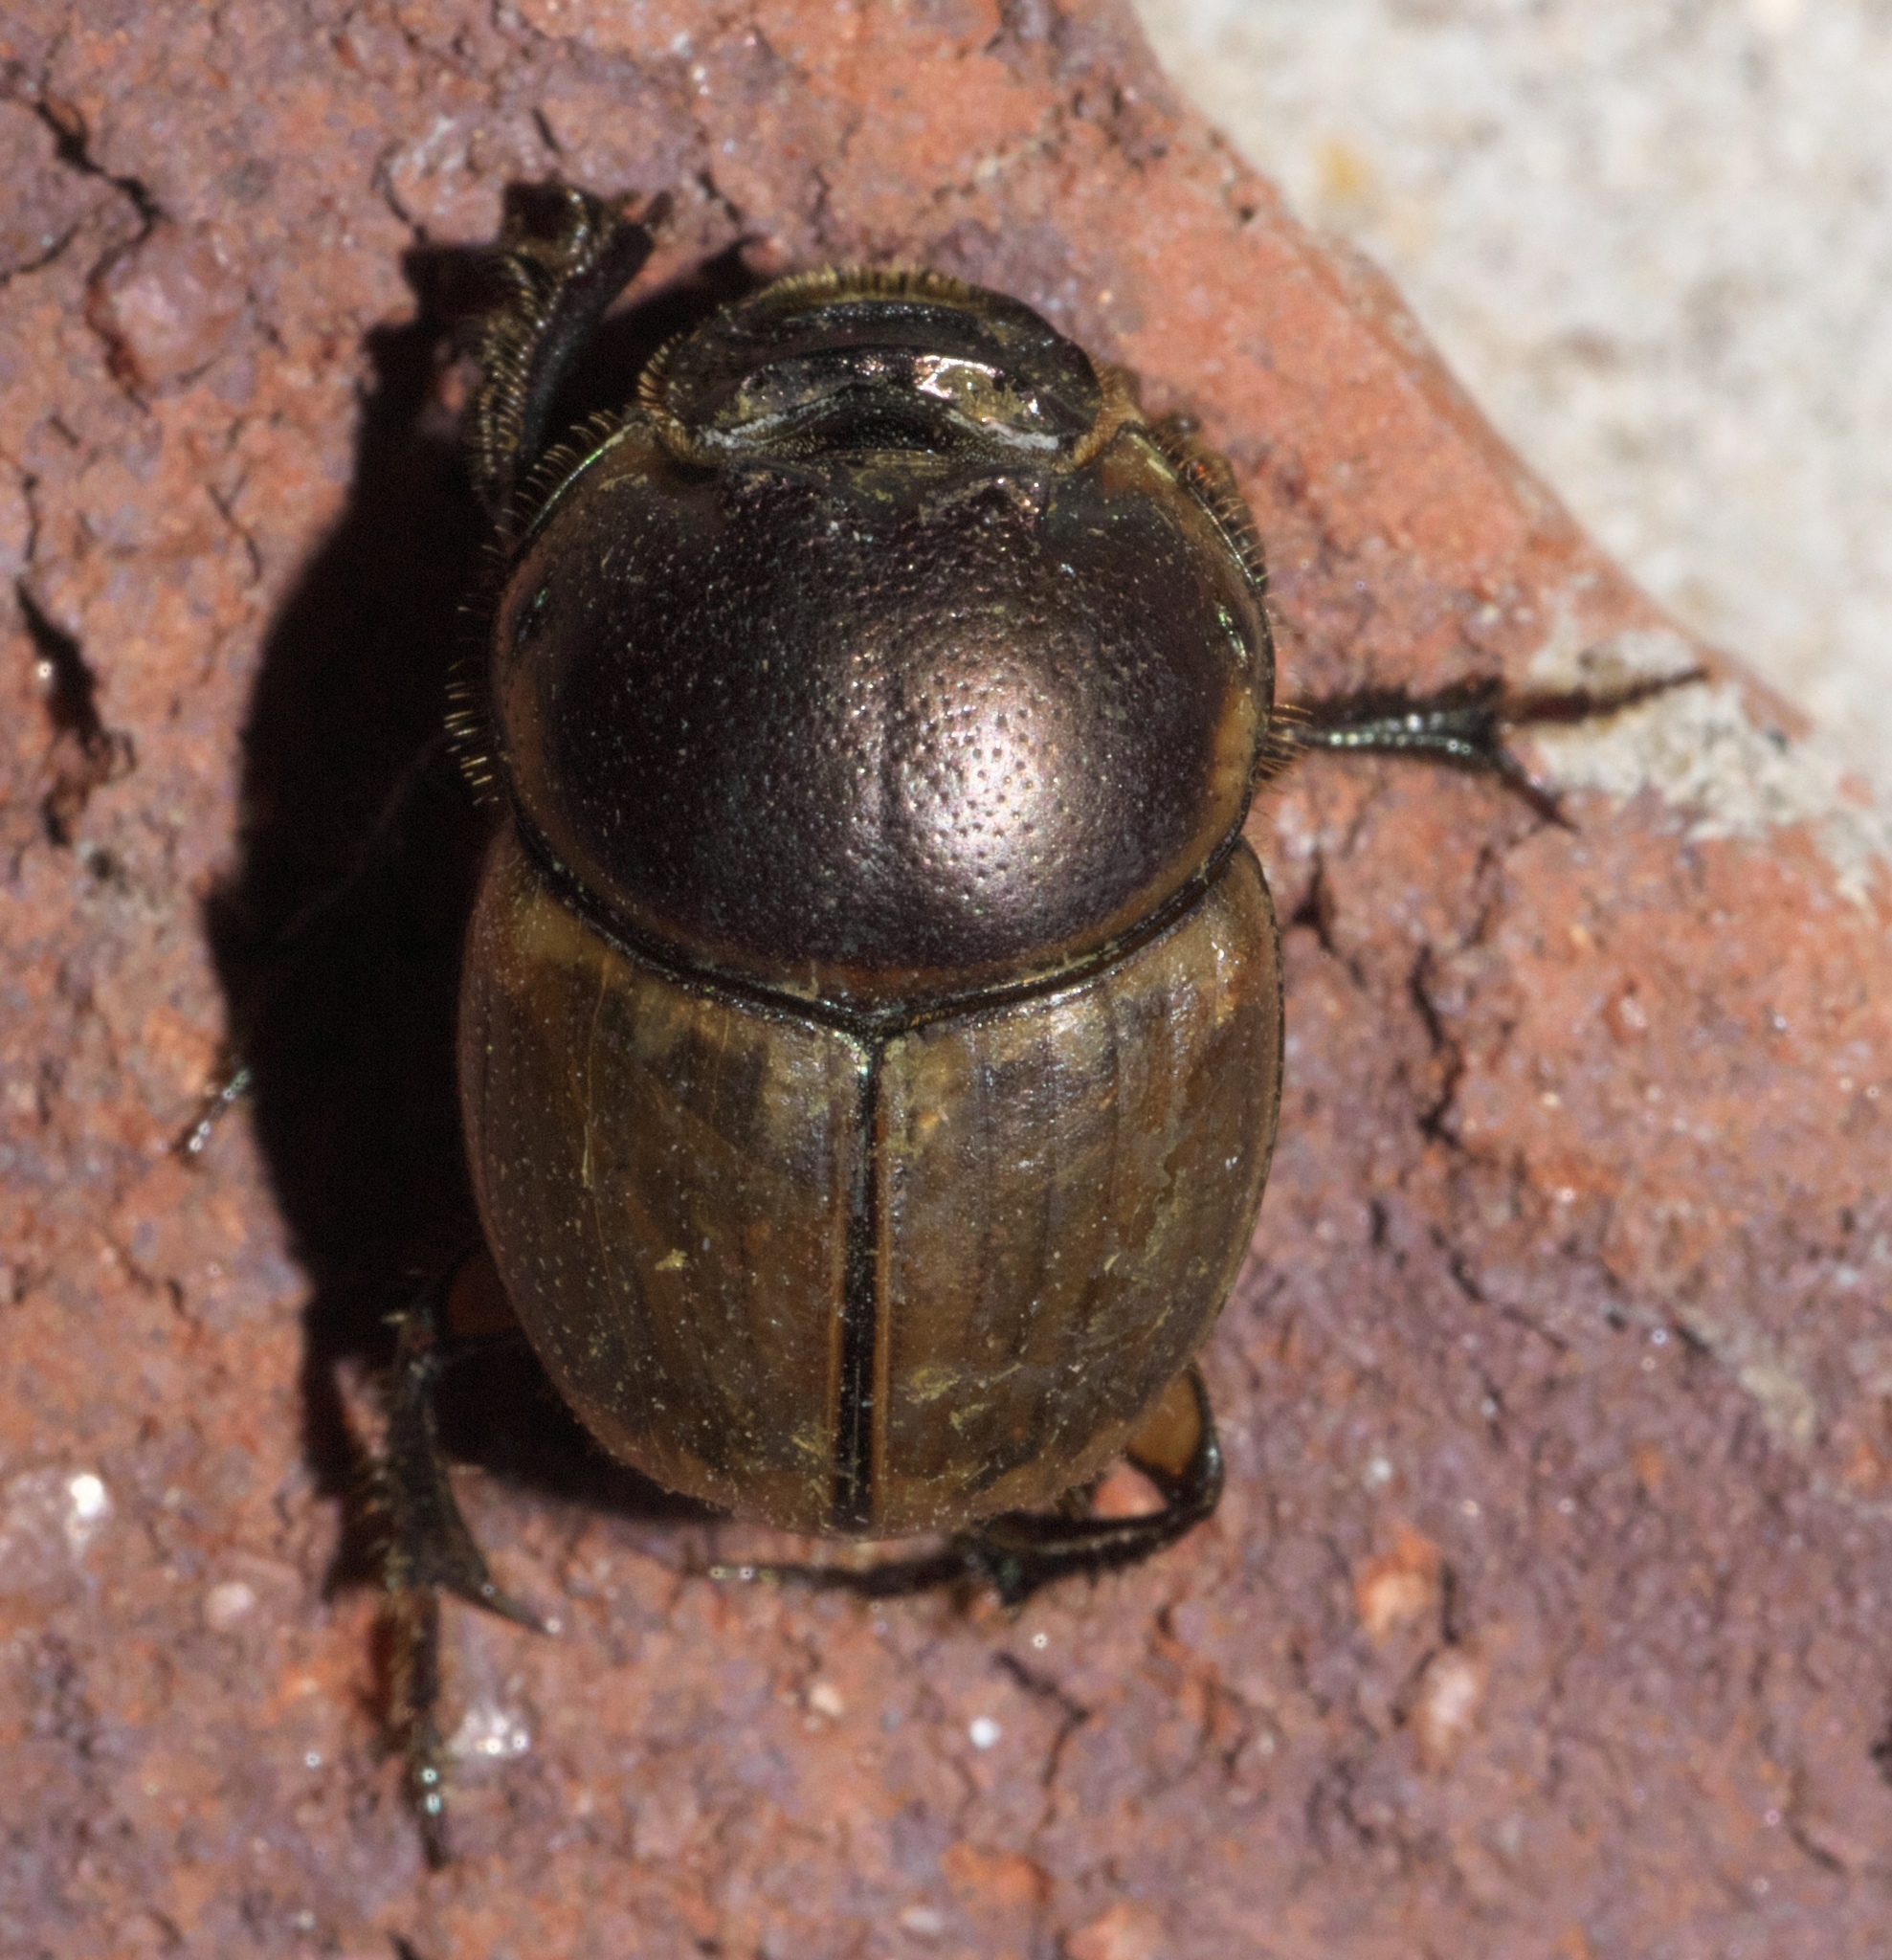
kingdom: Animalia
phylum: Arthropoda
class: Insecta
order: Coleoptera
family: Scarabaeidae
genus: Digitonthophagus
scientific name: Digitonthophagus gazella
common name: Brown dung beetle
